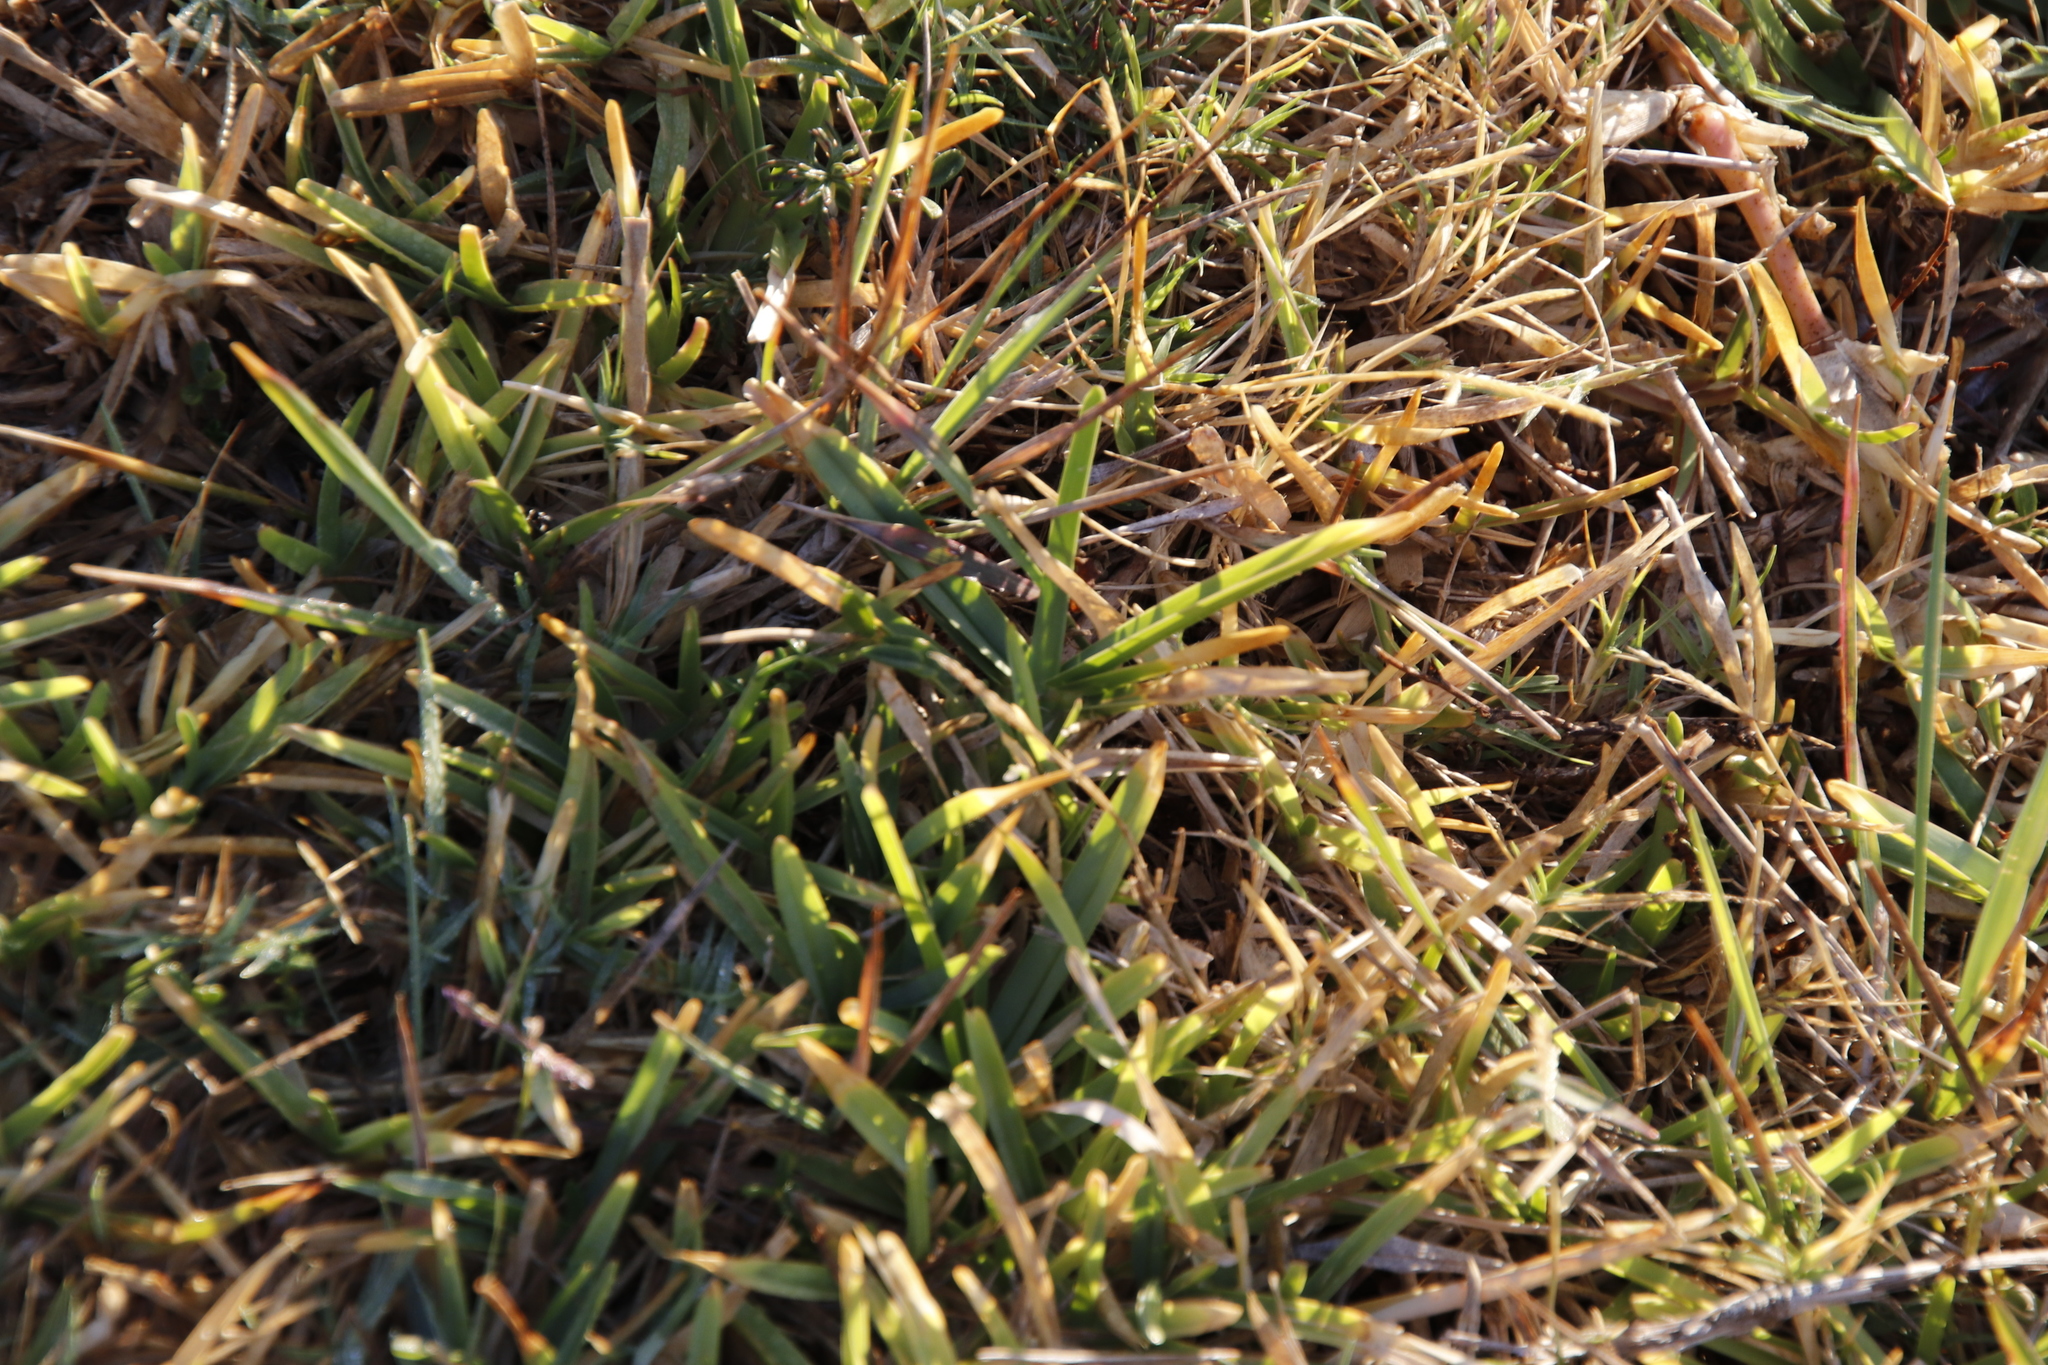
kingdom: Plantae
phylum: Tracheophyta
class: Liliopsida
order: Poales
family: Poaceae
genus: Stenotaphrum
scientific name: Stenotaphrum secundatum
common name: St. augustine grass
